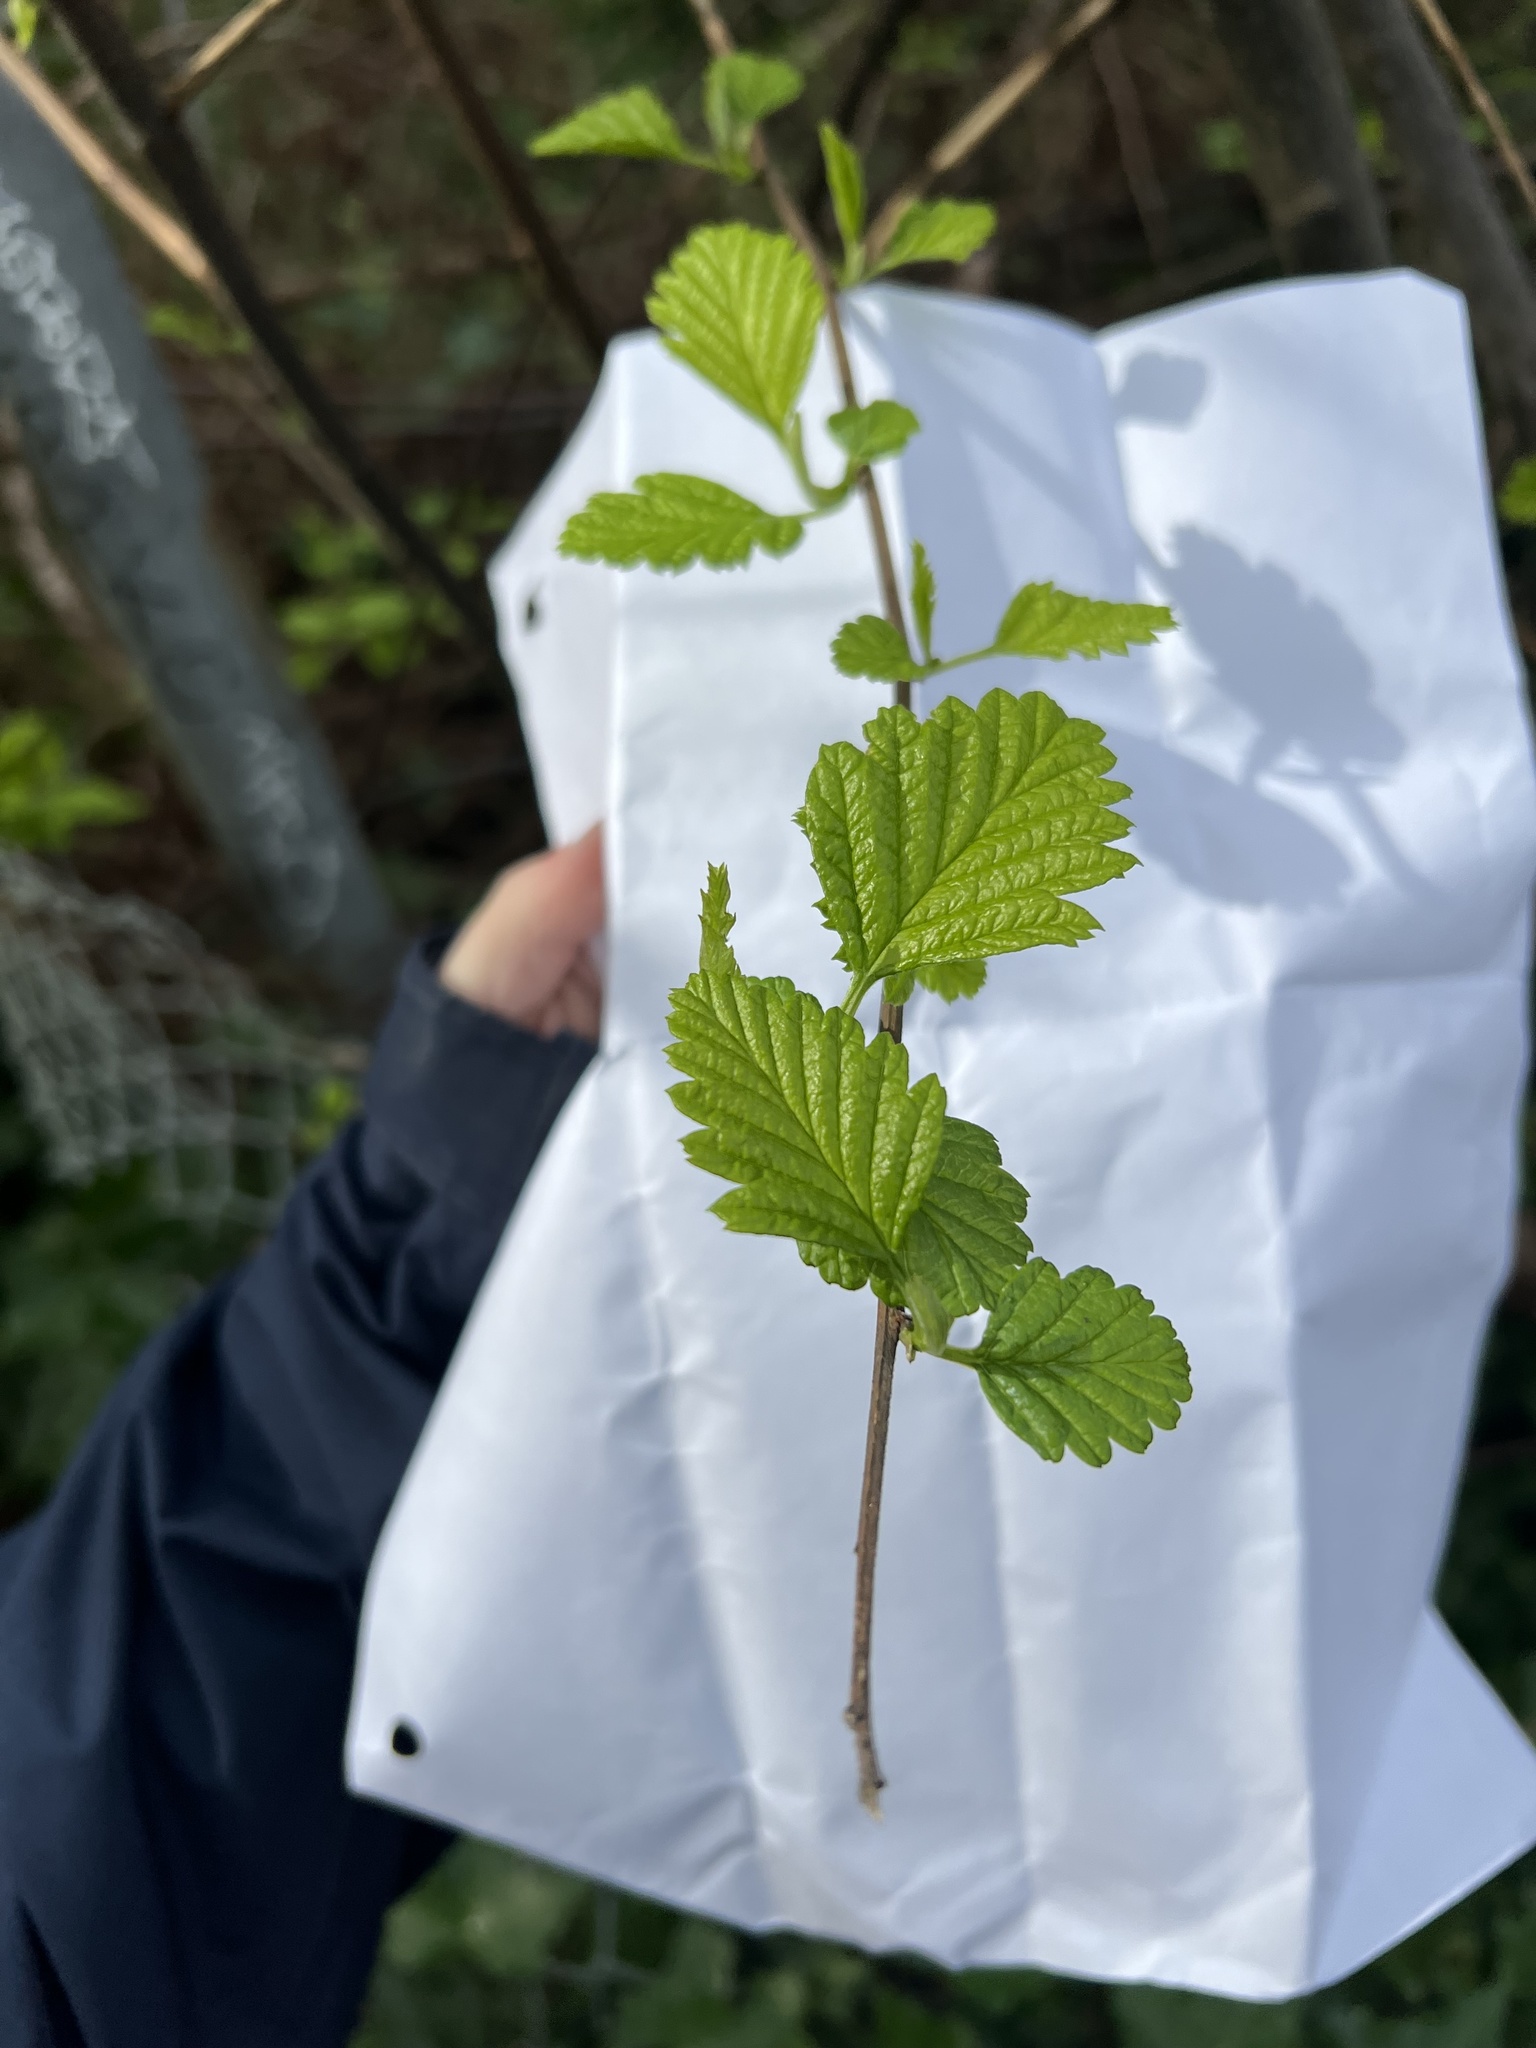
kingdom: Plantae
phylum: Tracheophyta
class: Magnoliopsida
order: Rosales
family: Rosaceae
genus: Holodiscus
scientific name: Holodiscus discolor
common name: Oceanspray
